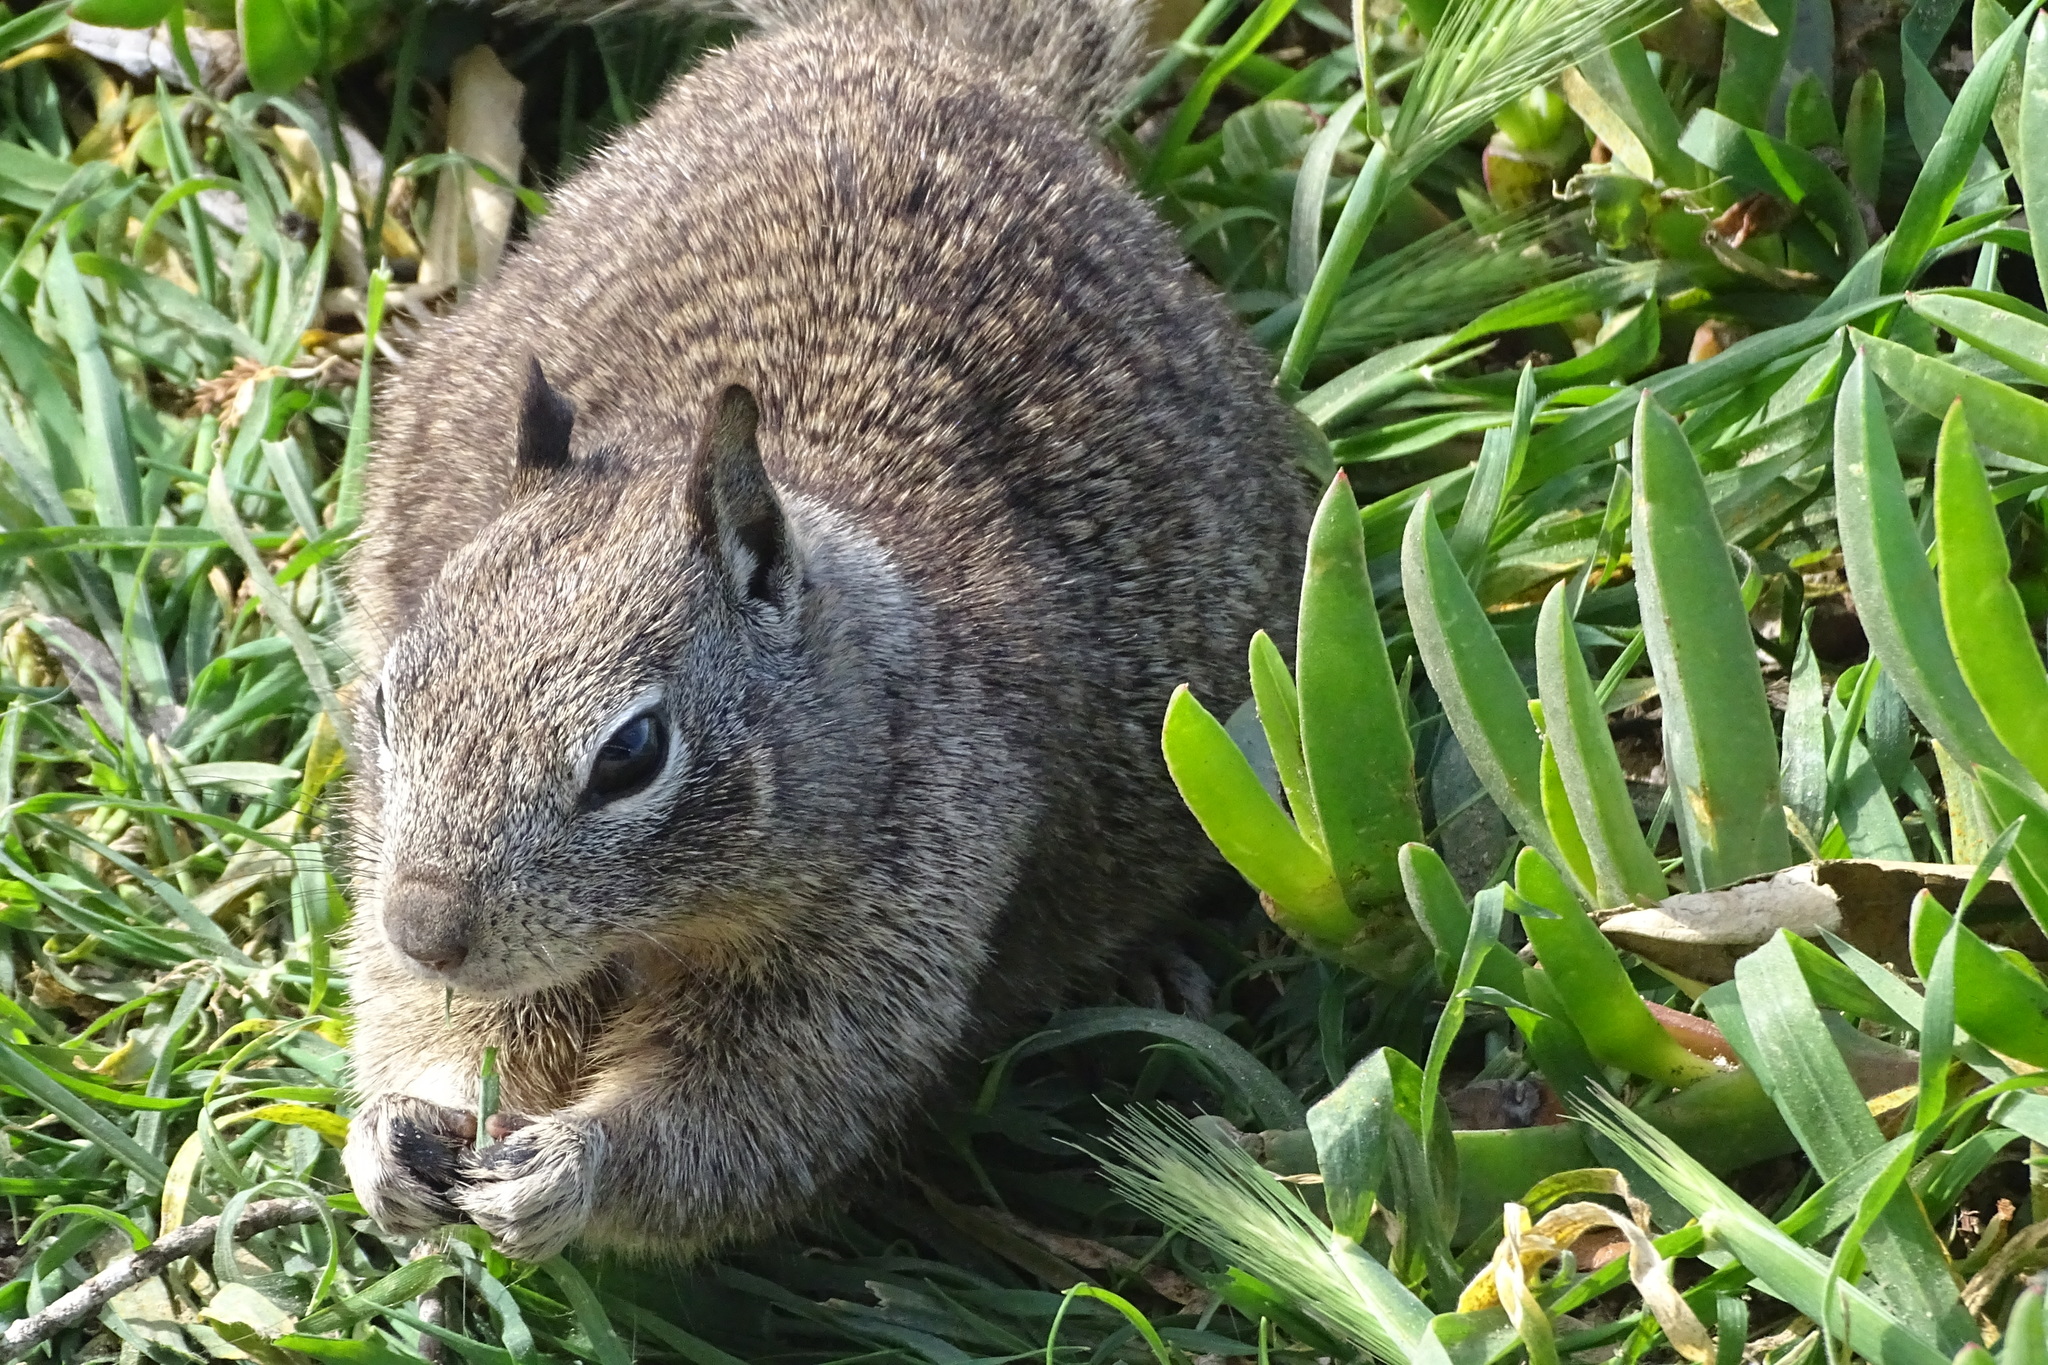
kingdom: Animalia
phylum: Chordata
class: Mammalia
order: Rodentia
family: Sciuridae
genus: Otospermophilus
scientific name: Otospermophilus beecheyi
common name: California ground squirrel
